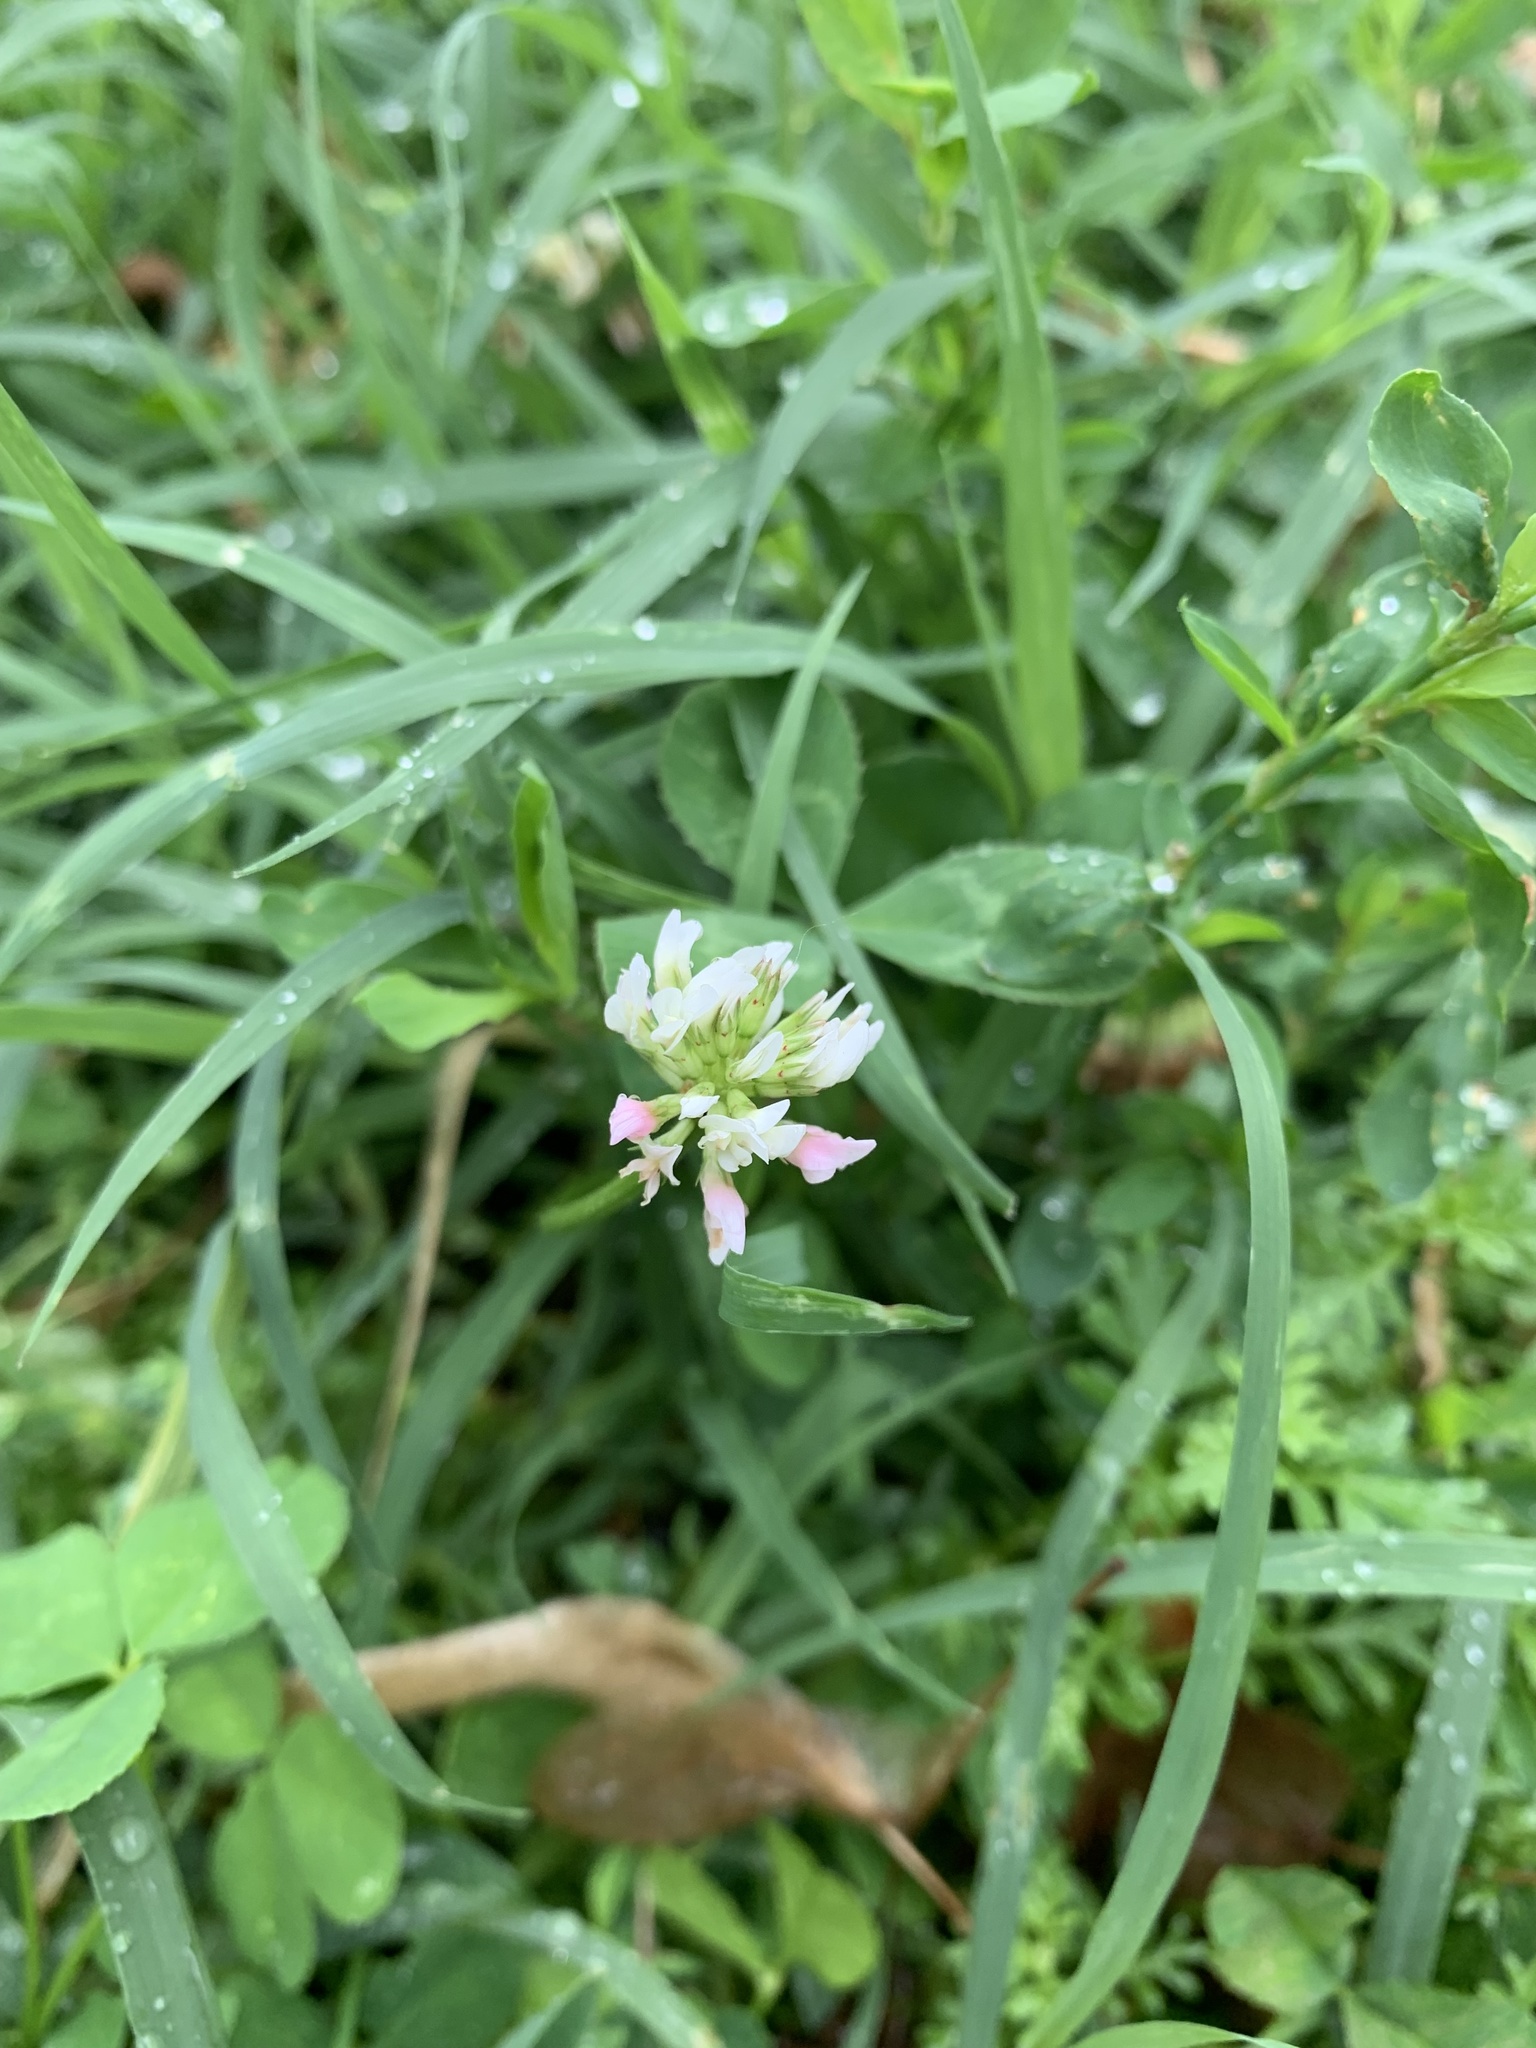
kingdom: Plantae
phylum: Tracheophyta
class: Magnoliopsida
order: Fabales
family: Fabaceae
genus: Trifolium
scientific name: Trifolium repens
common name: White clover
